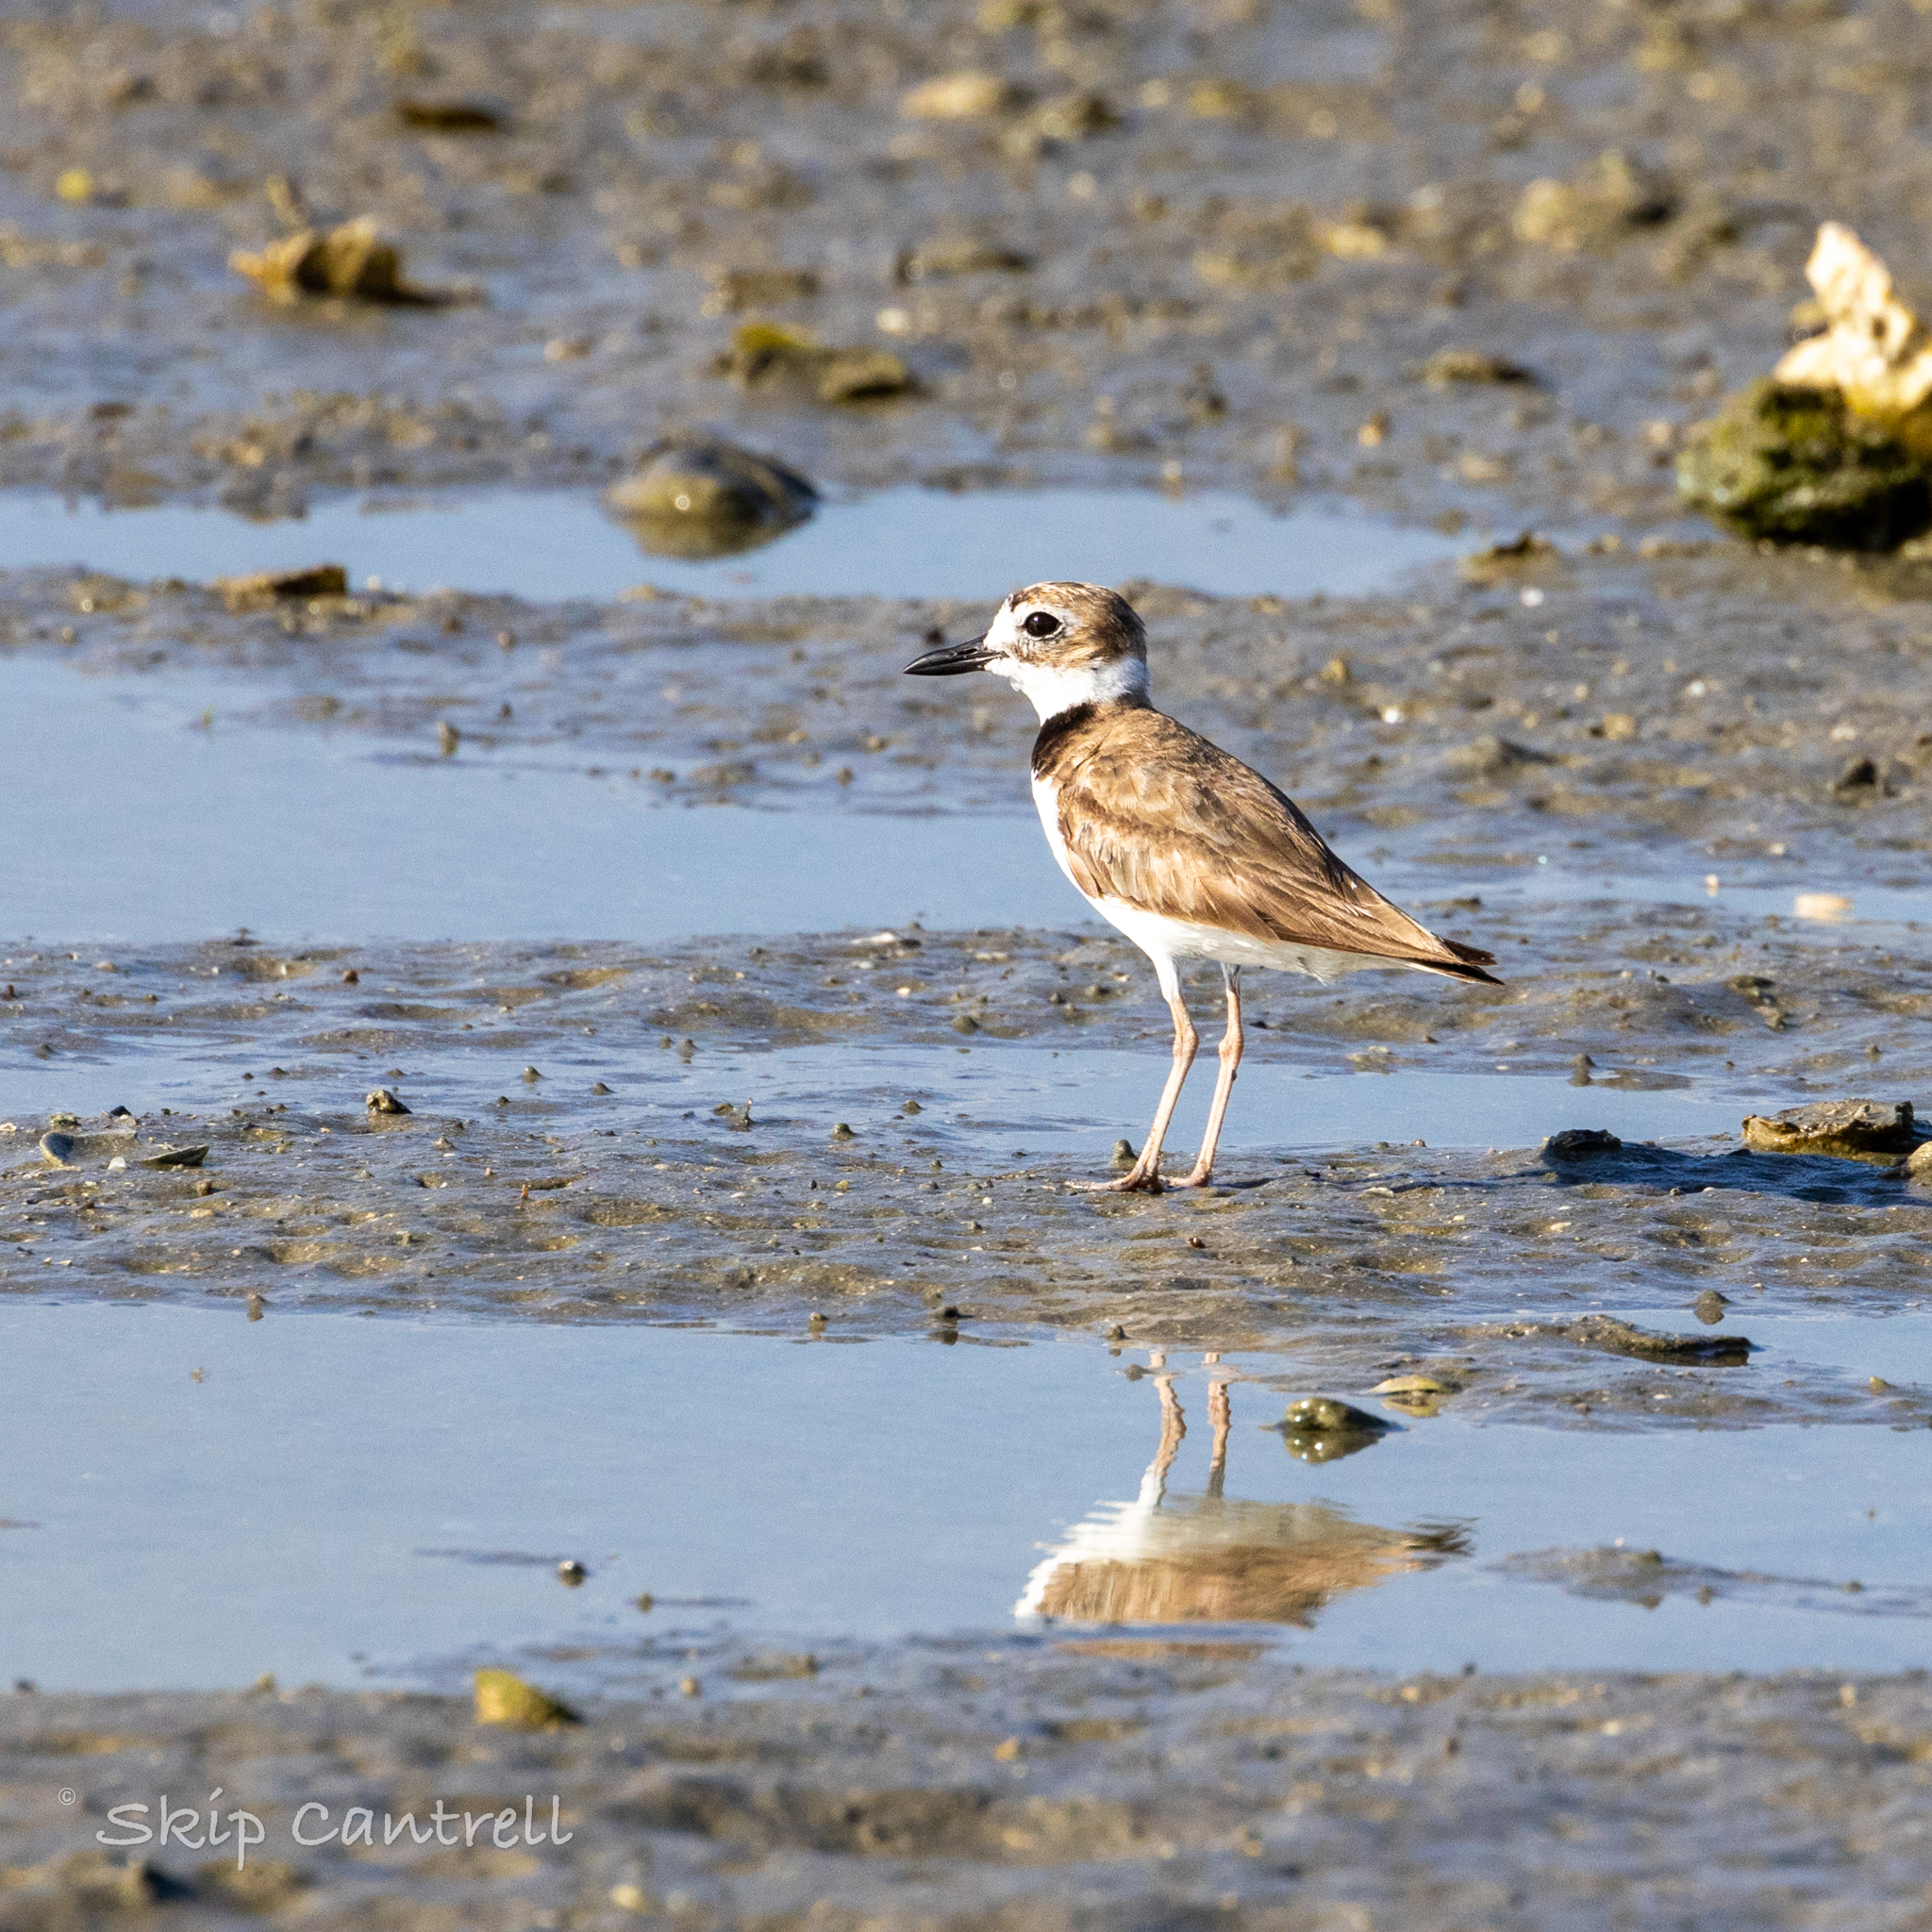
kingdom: Animalia
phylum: Chordata
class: Aves
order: Charadriiformes
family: Charadriidae
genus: Anarhynchus
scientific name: Anarhynchus
